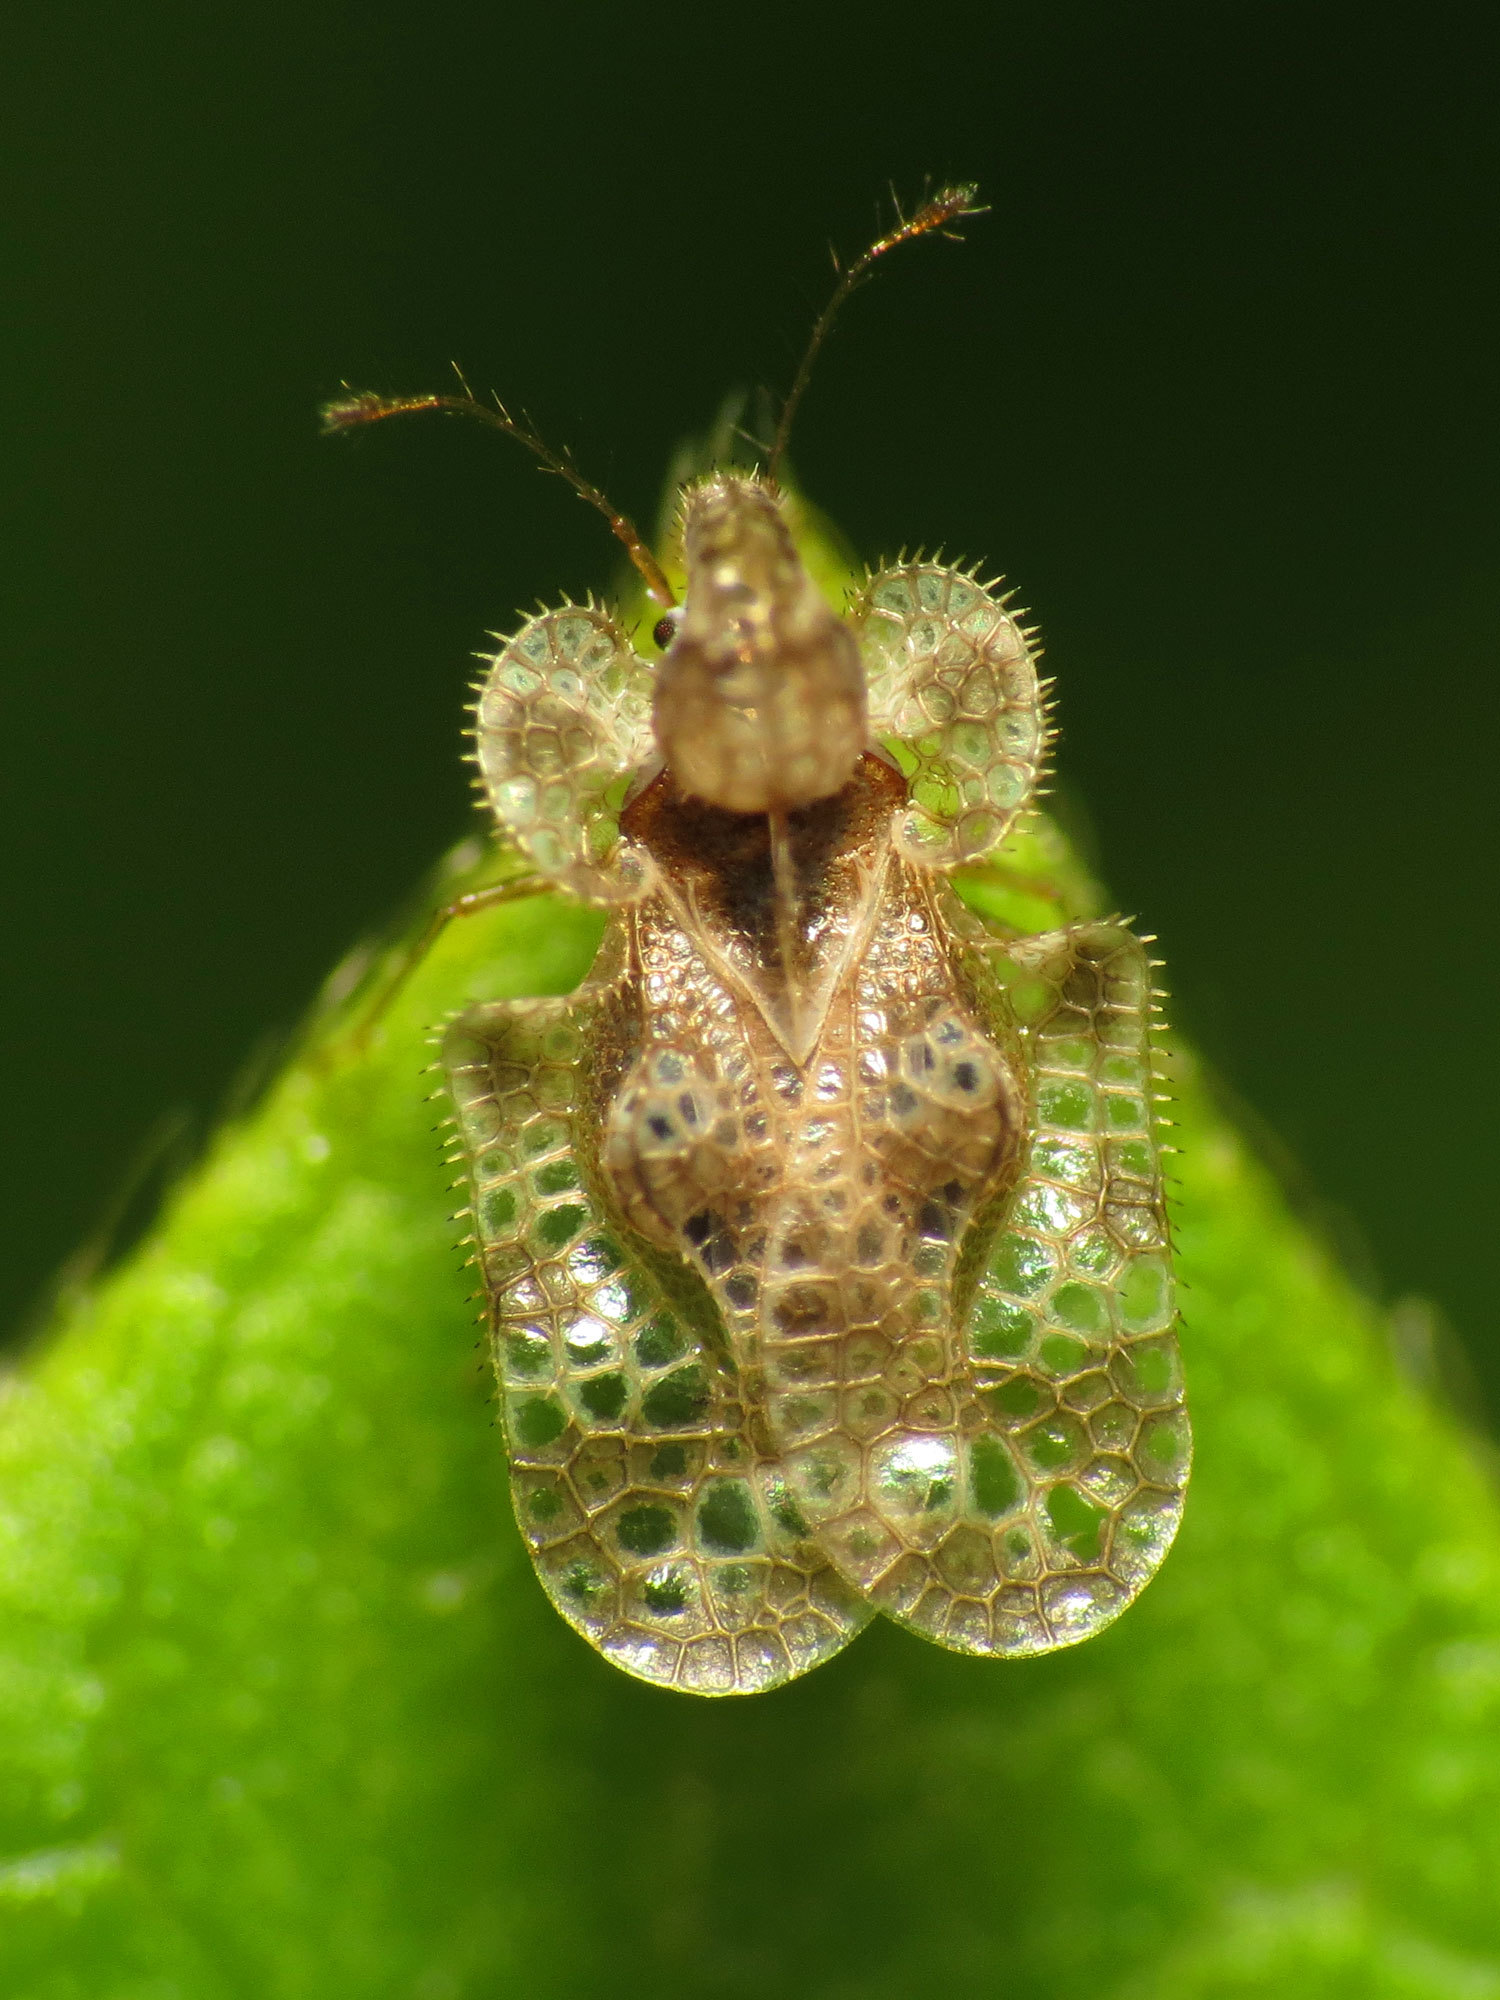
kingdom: Animalia
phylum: Arthropoda
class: Insecta
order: Hemiptera
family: Tingidae
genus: Corythucha
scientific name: Corythucha marmorata
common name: Chrysanthemum lace bug
